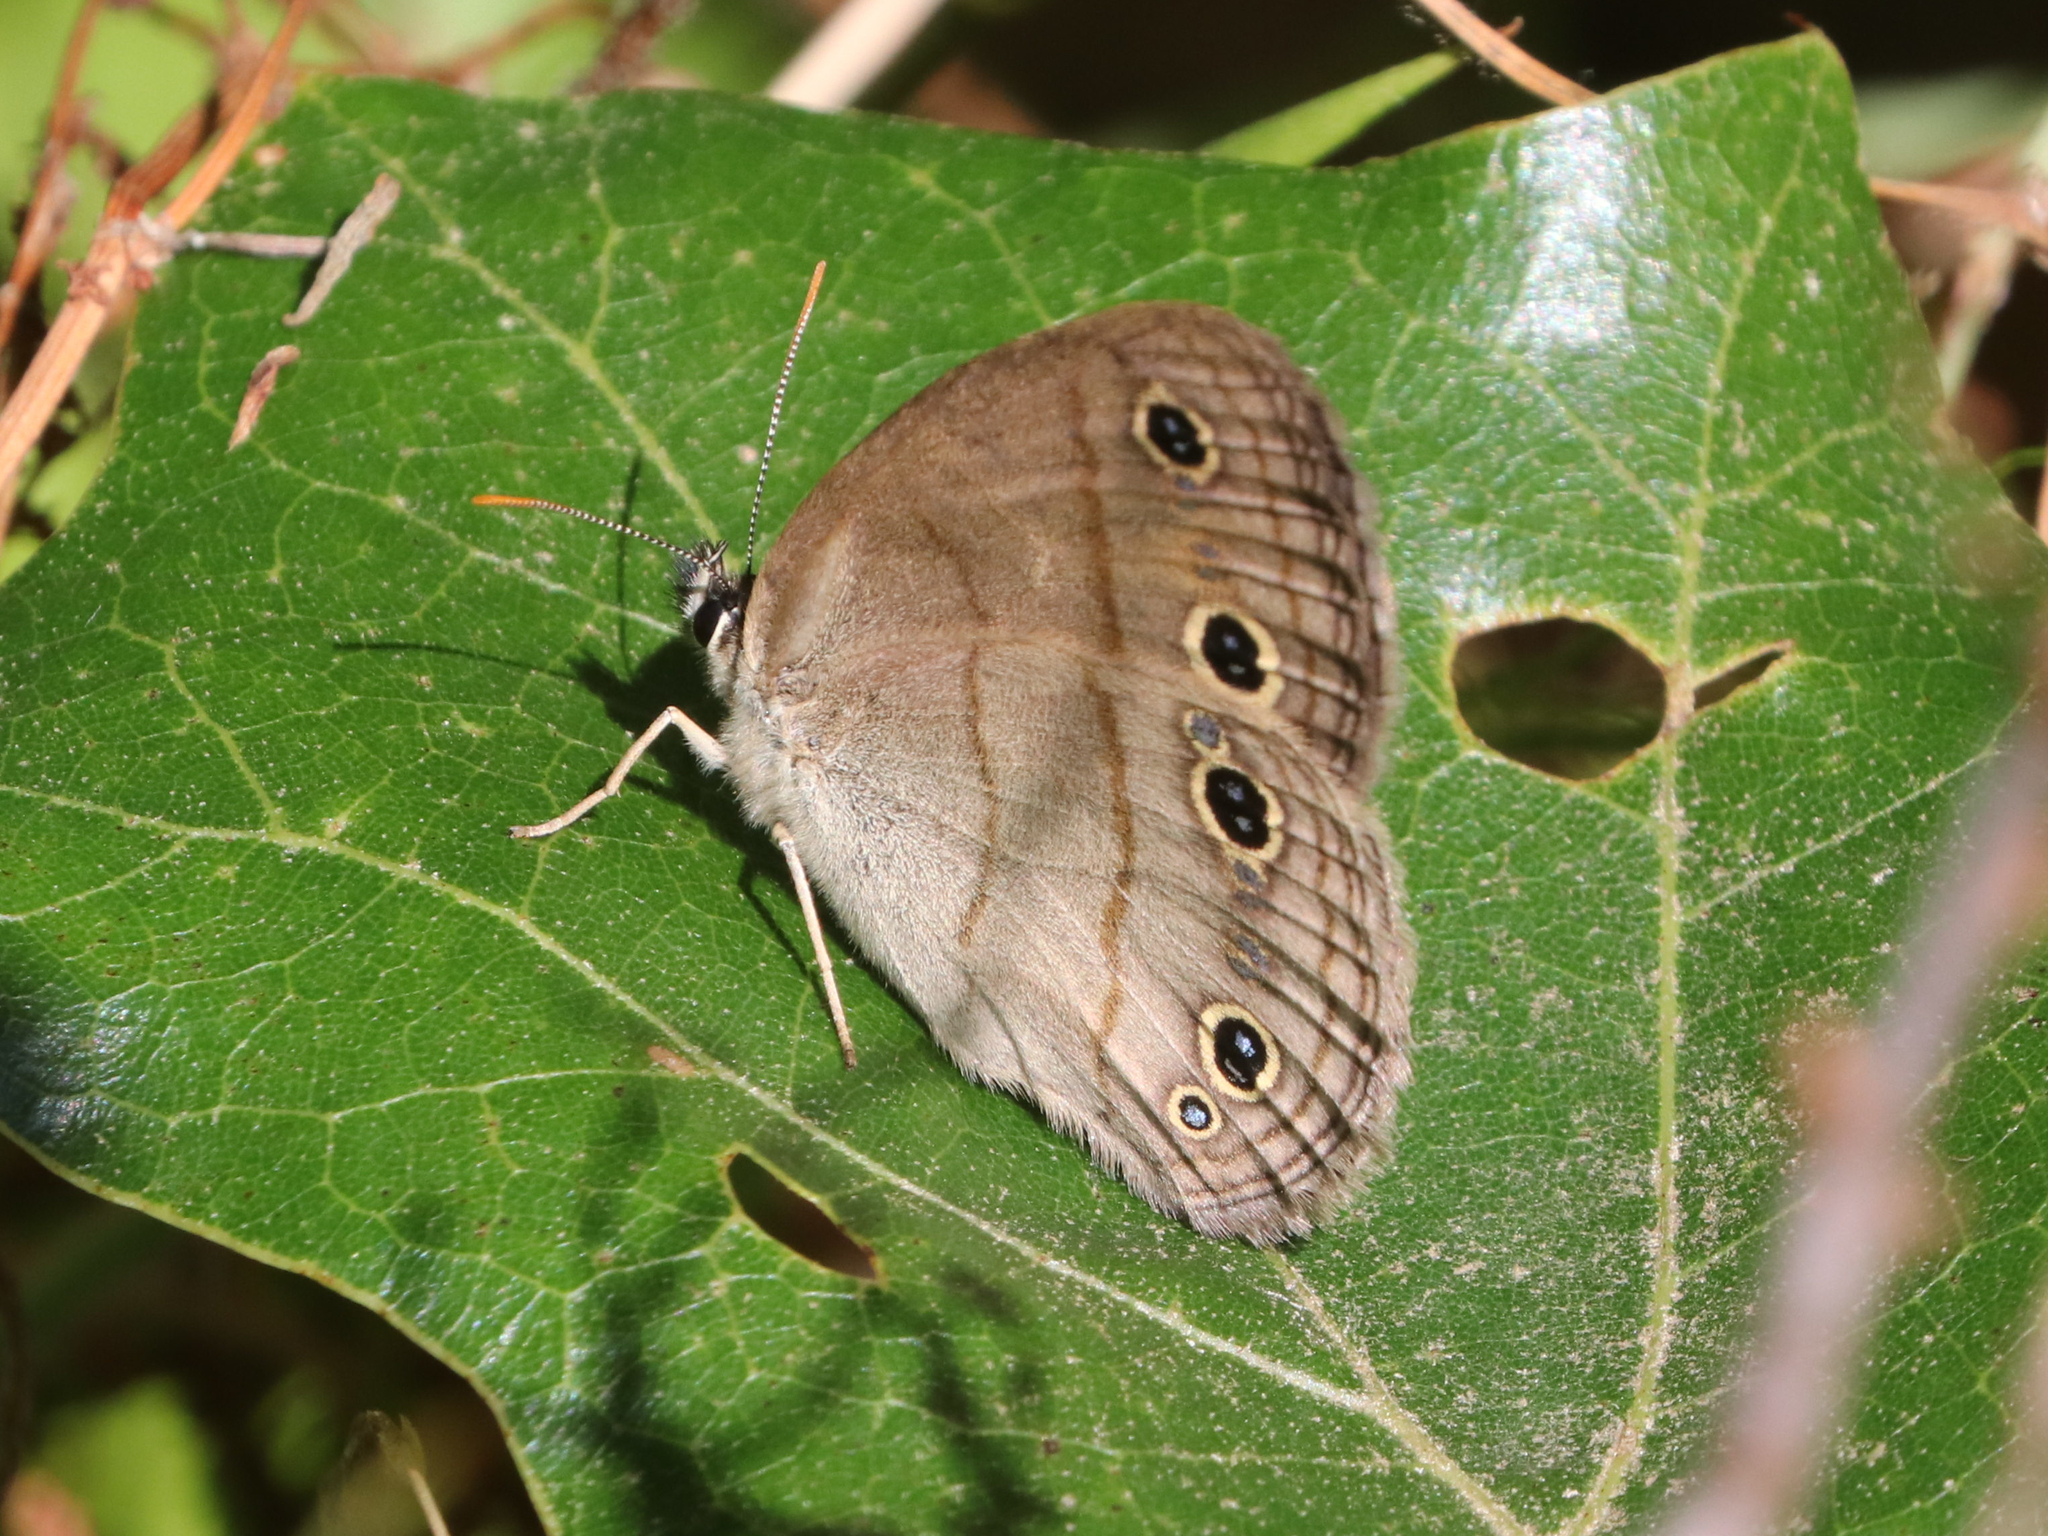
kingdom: Animalia
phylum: Arthropoda
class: Insecta
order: Lepidoptera
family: Nymphalidae
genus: Euptychia
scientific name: Euptychia cymela
